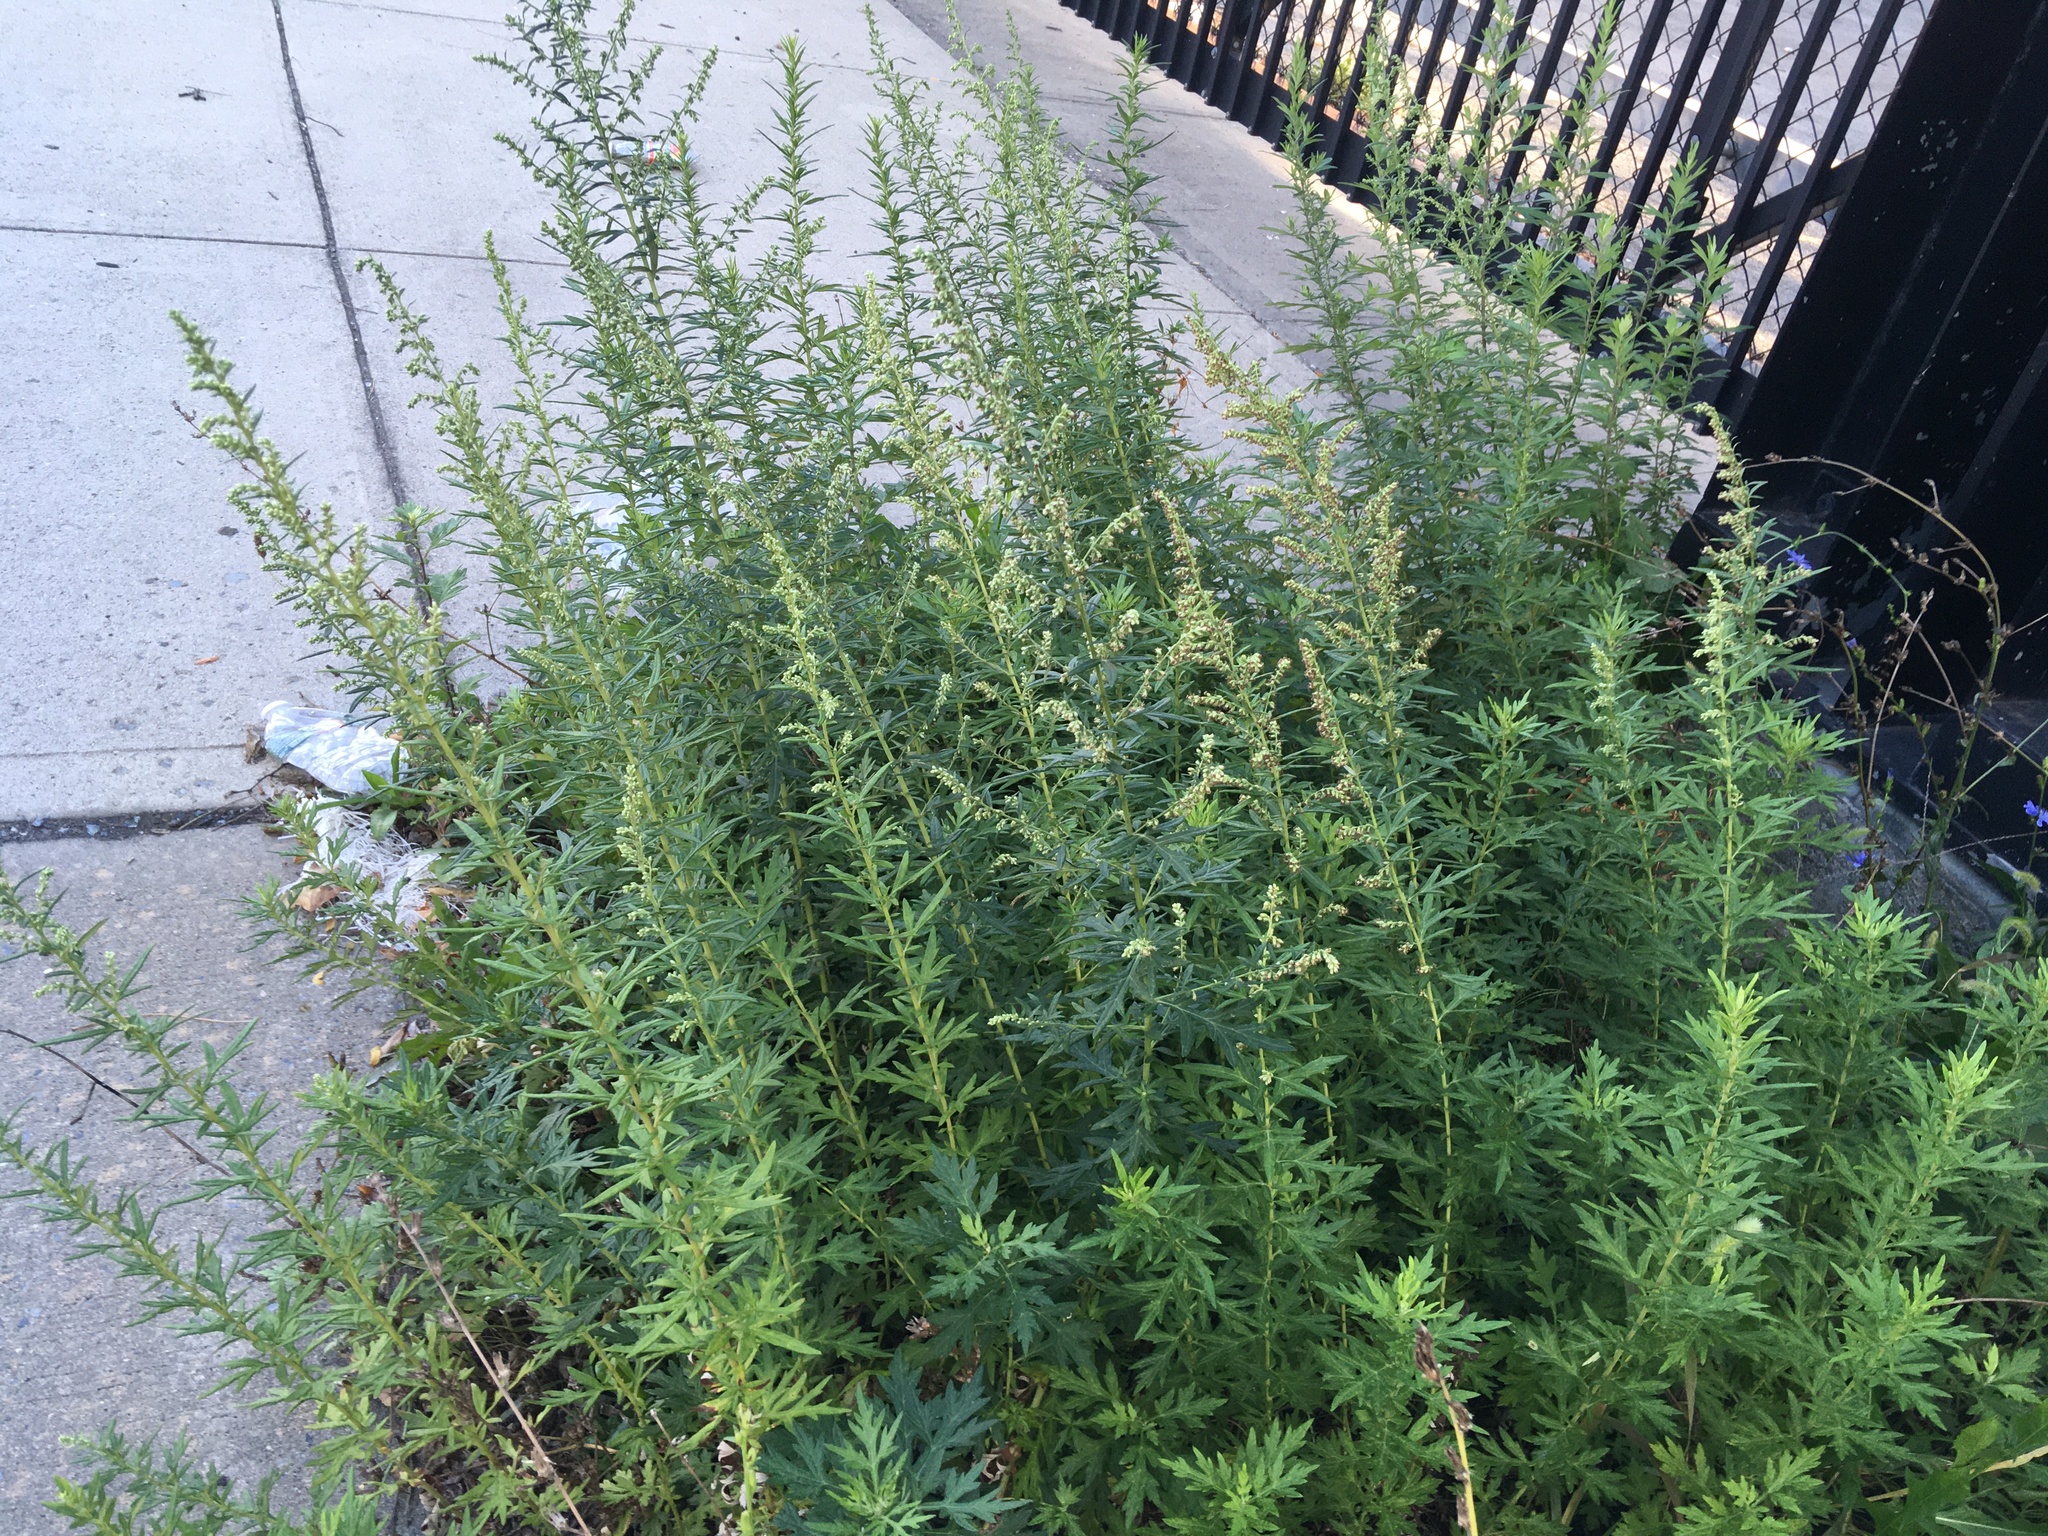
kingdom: Plantae
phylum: Tracheophyta
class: Magnoliopsida
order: Asterales
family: Asteraceae
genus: Artemisia
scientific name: Artemisia vulgaris
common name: Mugwort
